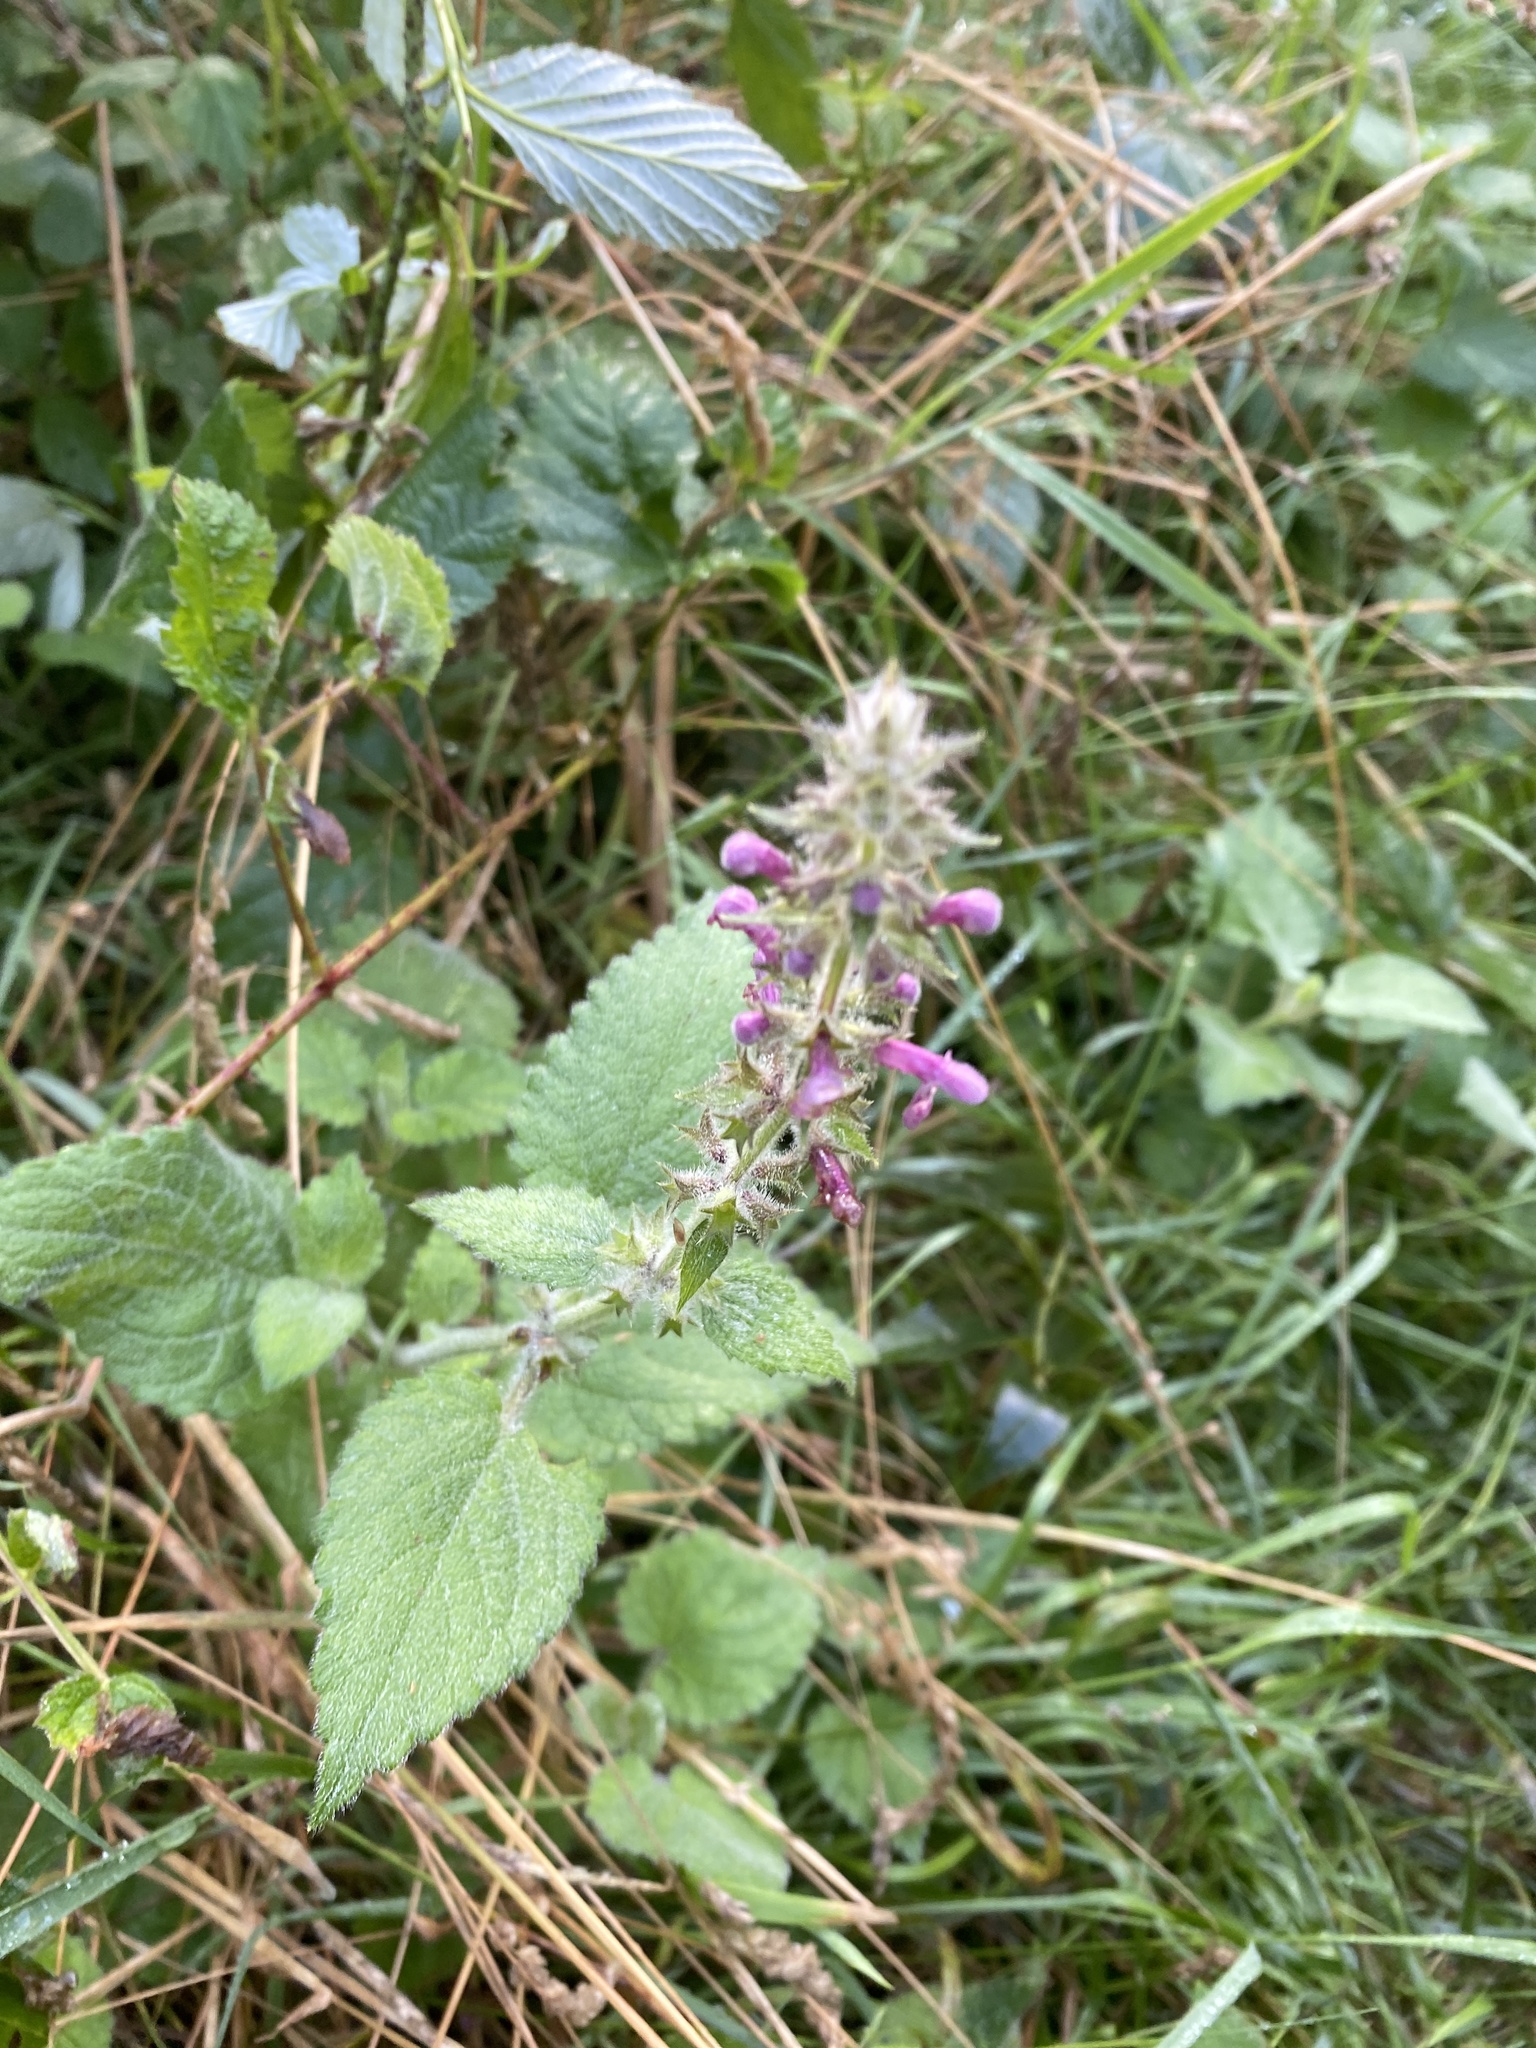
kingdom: Plantae
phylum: Tracheophyta
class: Magnoliopsida
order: Lamiales
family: Lamiaceae
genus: Stachys
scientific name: Stachys sylvatica
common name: Hedge woundwort
